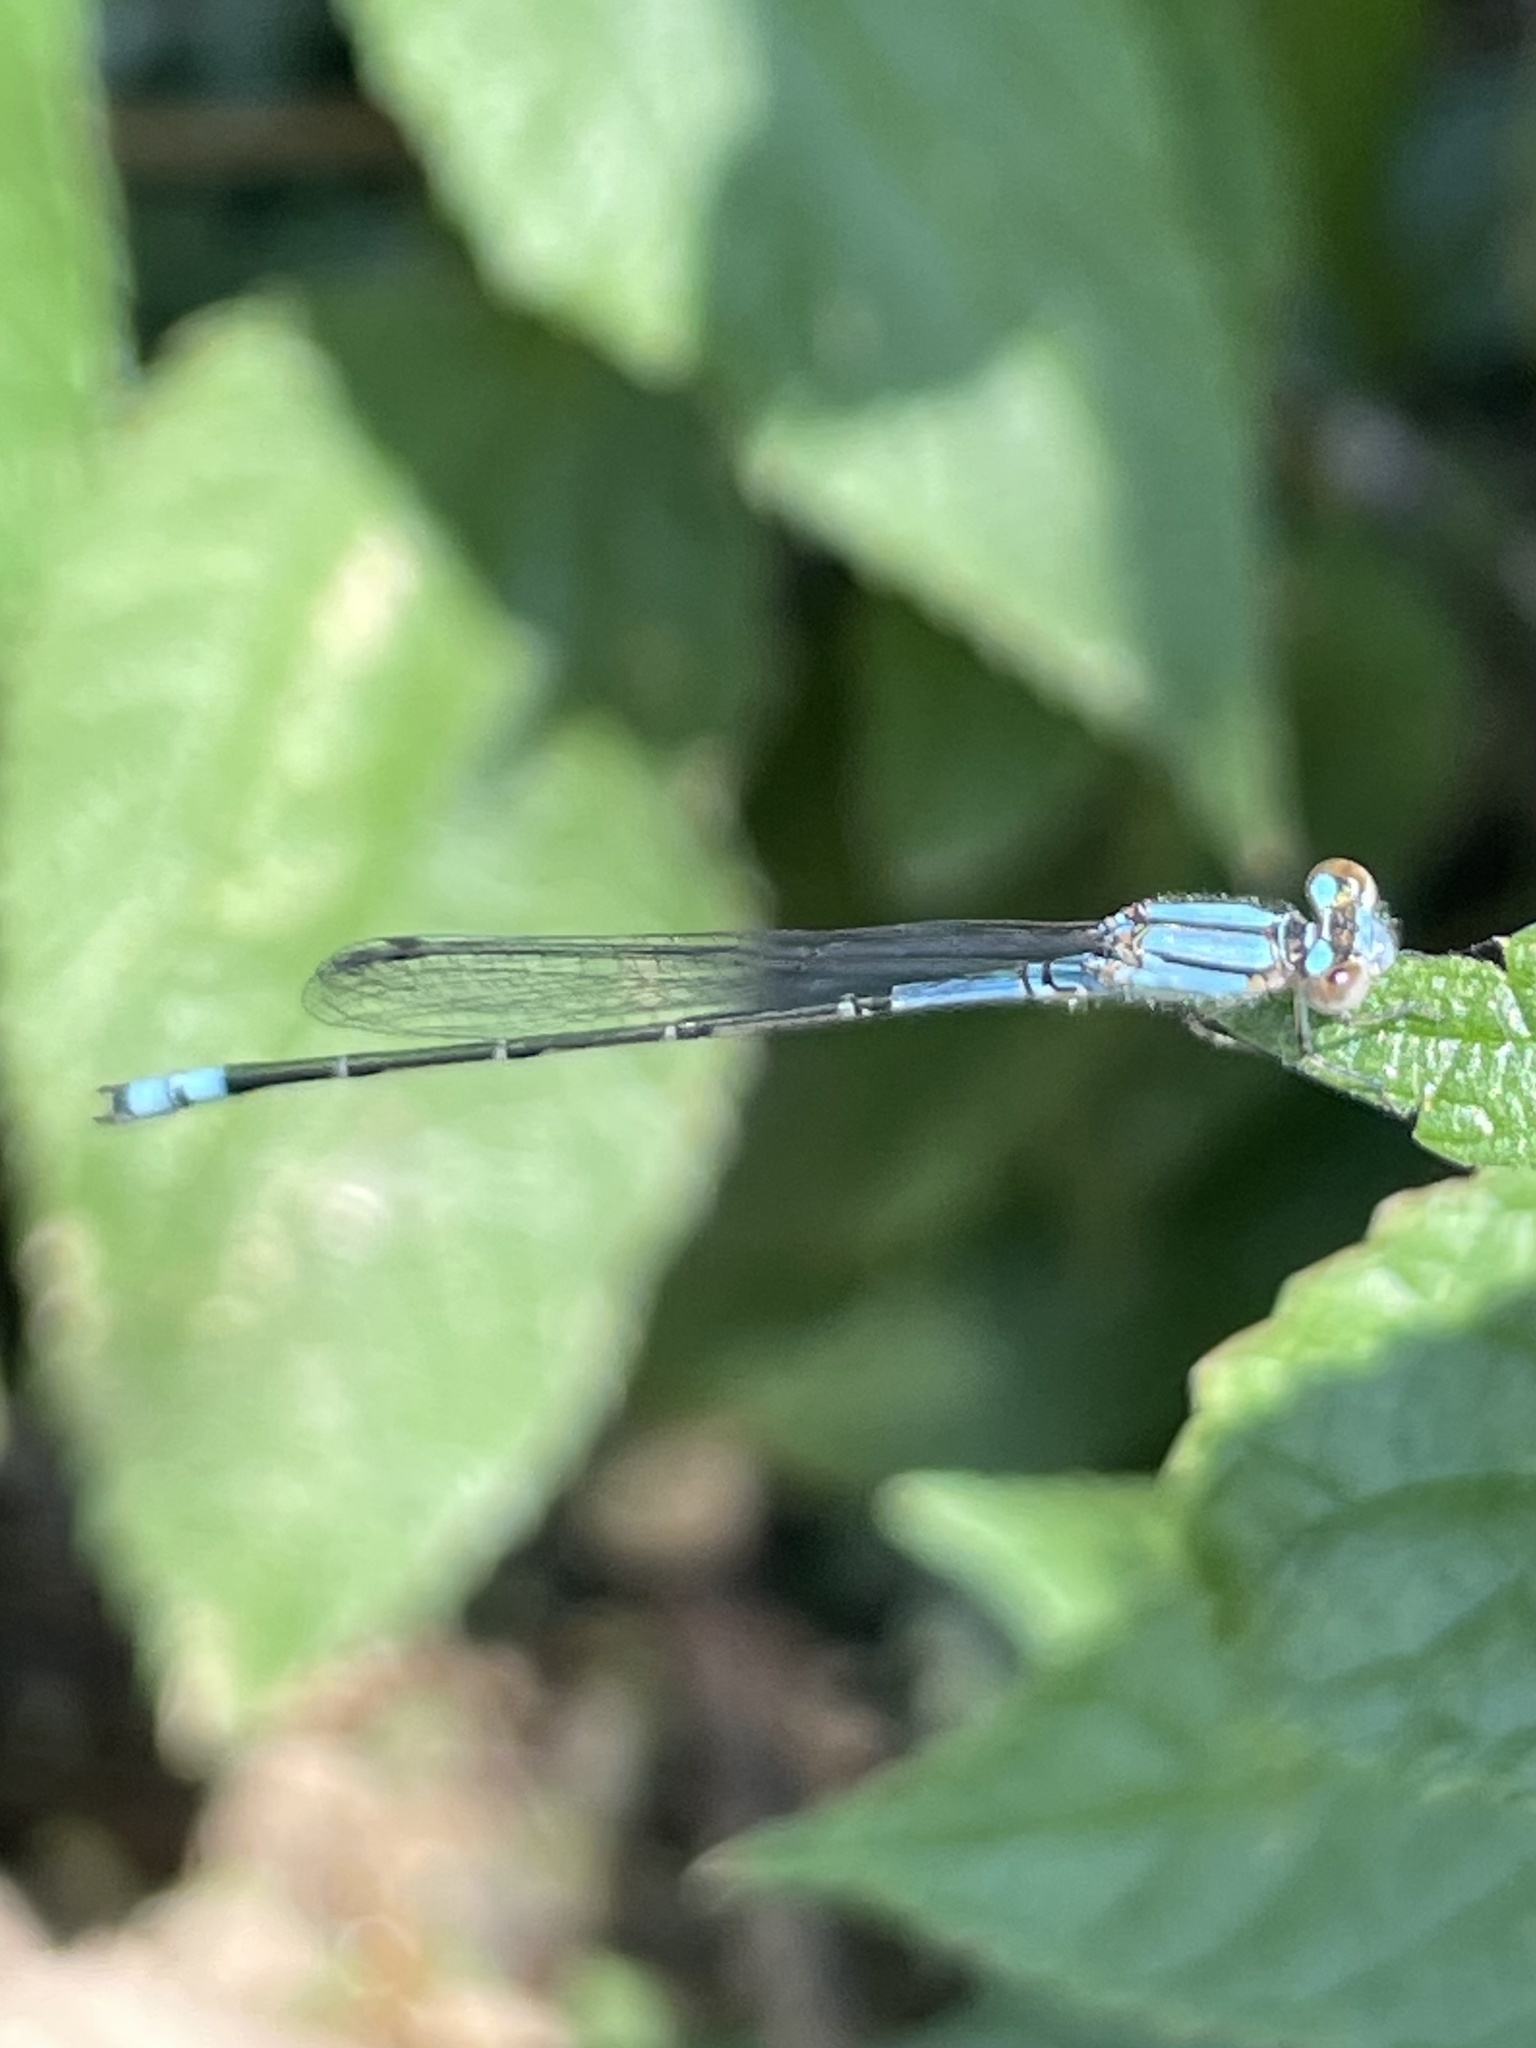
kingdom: Animalia
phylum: Arthropoda
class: Insecta
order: Odonata
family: Coenagrionidae
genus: Enallagma
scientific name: Enallagma novaehispaniae
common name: Neotropical bluet
